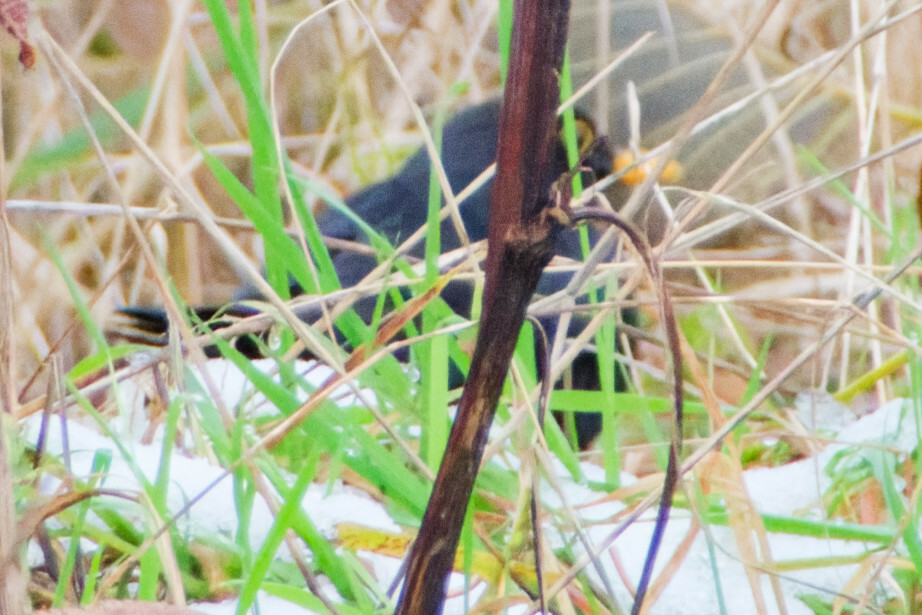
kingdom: Animalia
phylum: Chordata
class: Aves
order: Passeriformes
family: Turdidae
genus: Turdus
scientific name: Turdus merula
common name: Common blackbird
